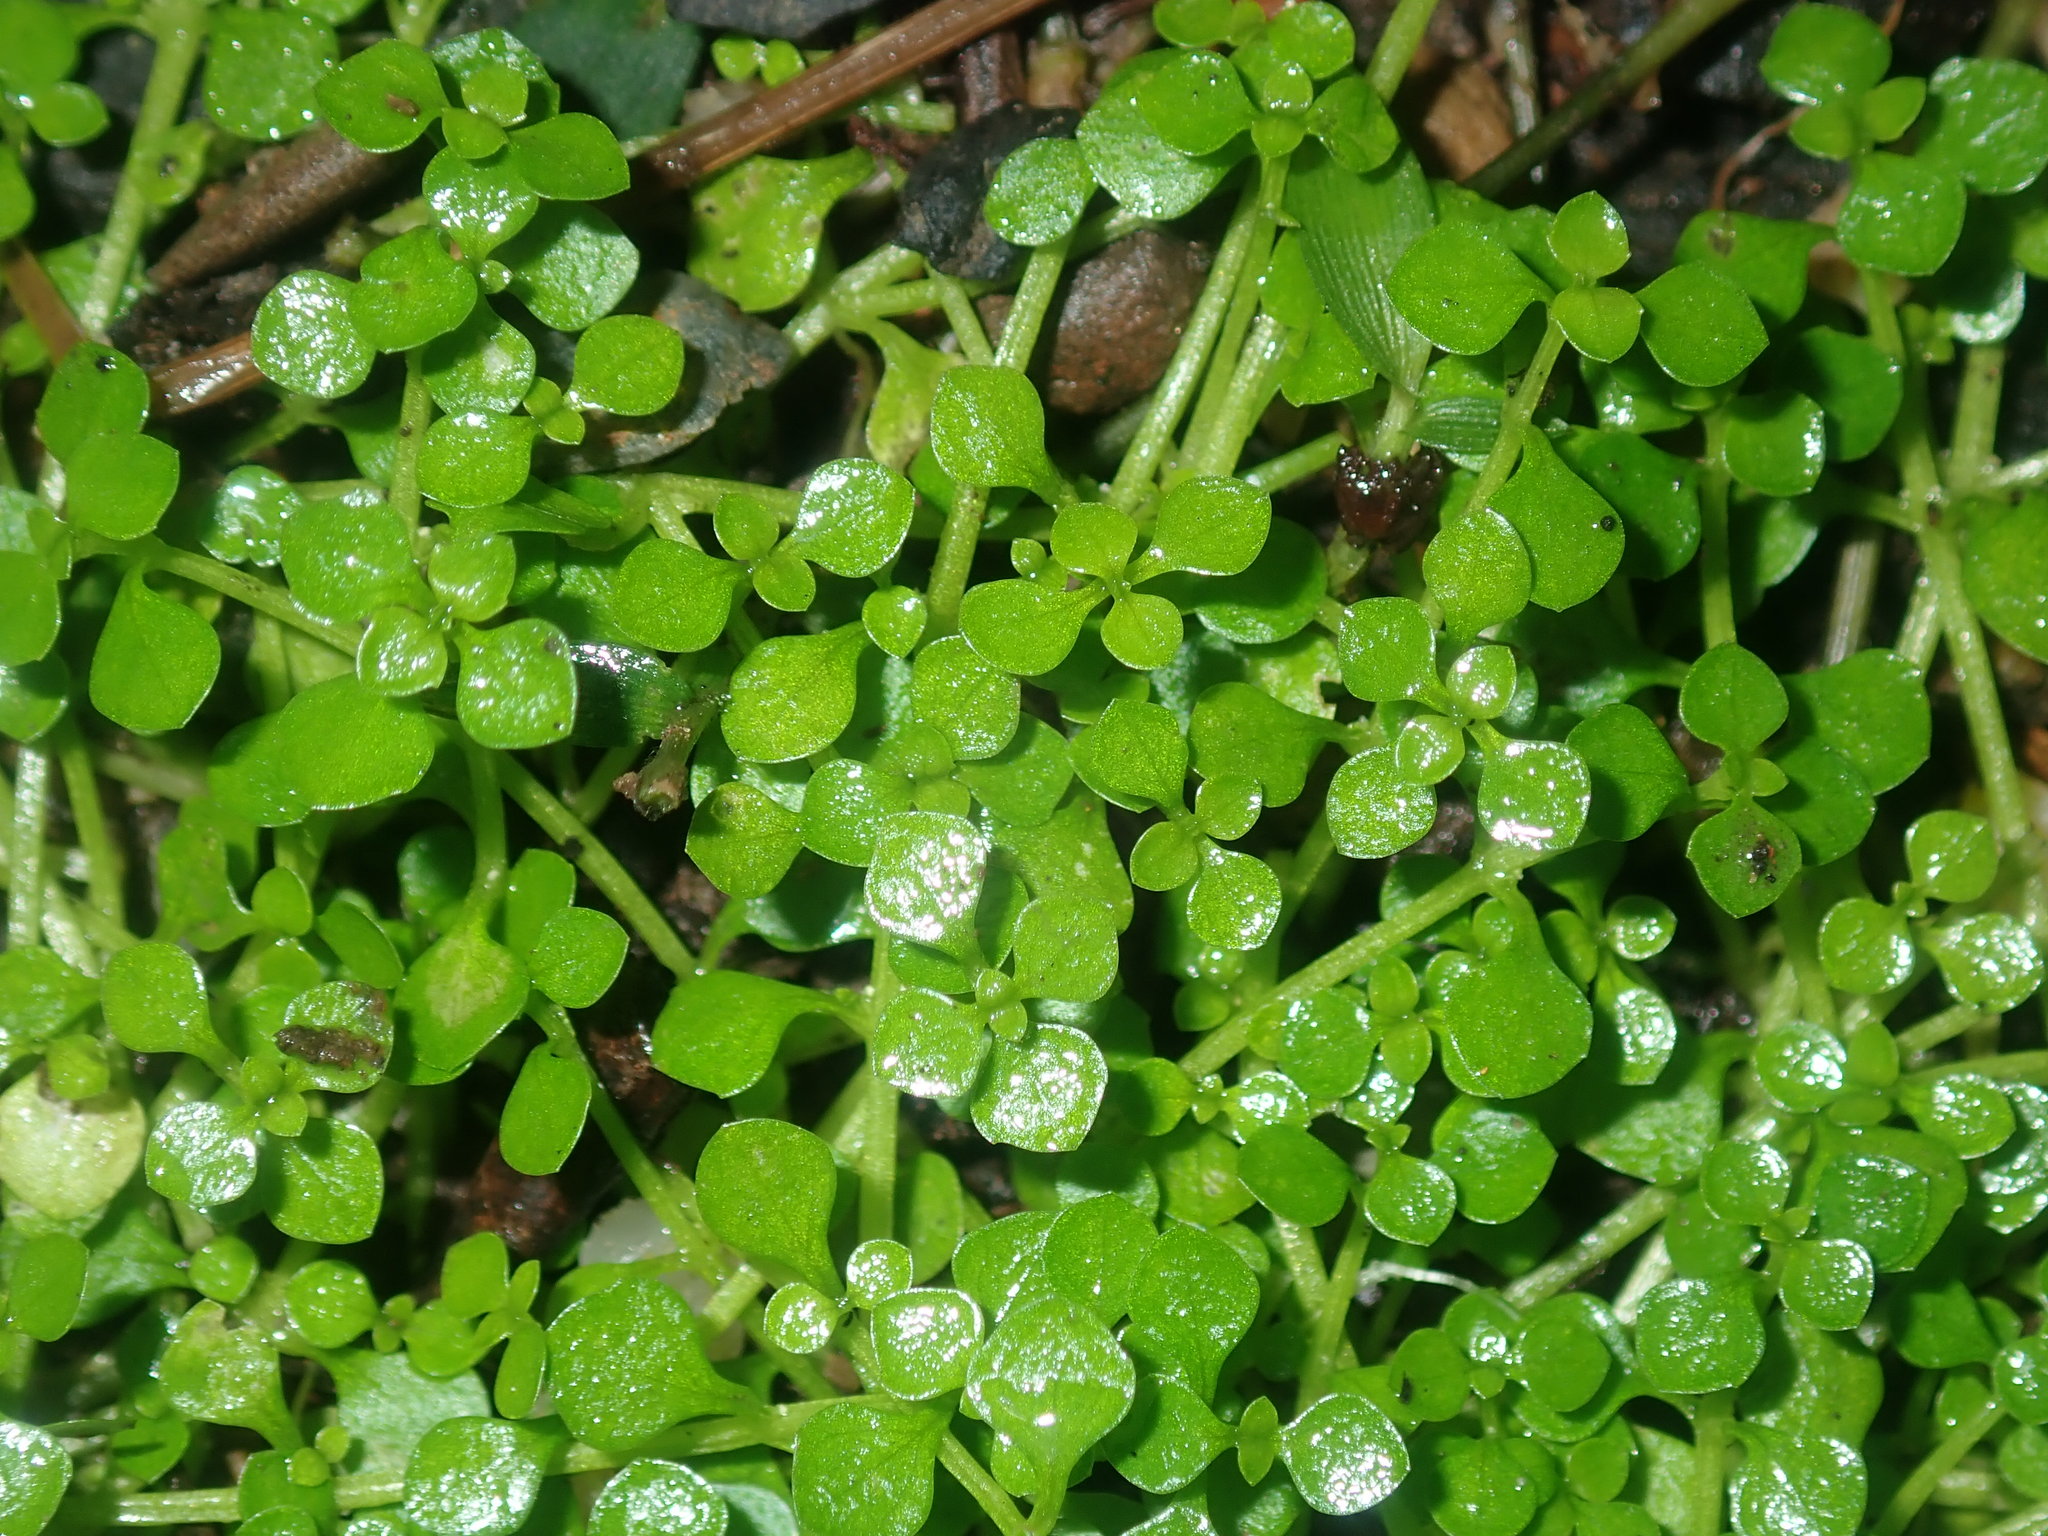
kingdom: Plantae
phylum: Tracheophyta
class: Magnoliopsida
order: Lamiales
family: Plantaginaceae
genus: Callitriche
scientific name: Callitriche muelleri
